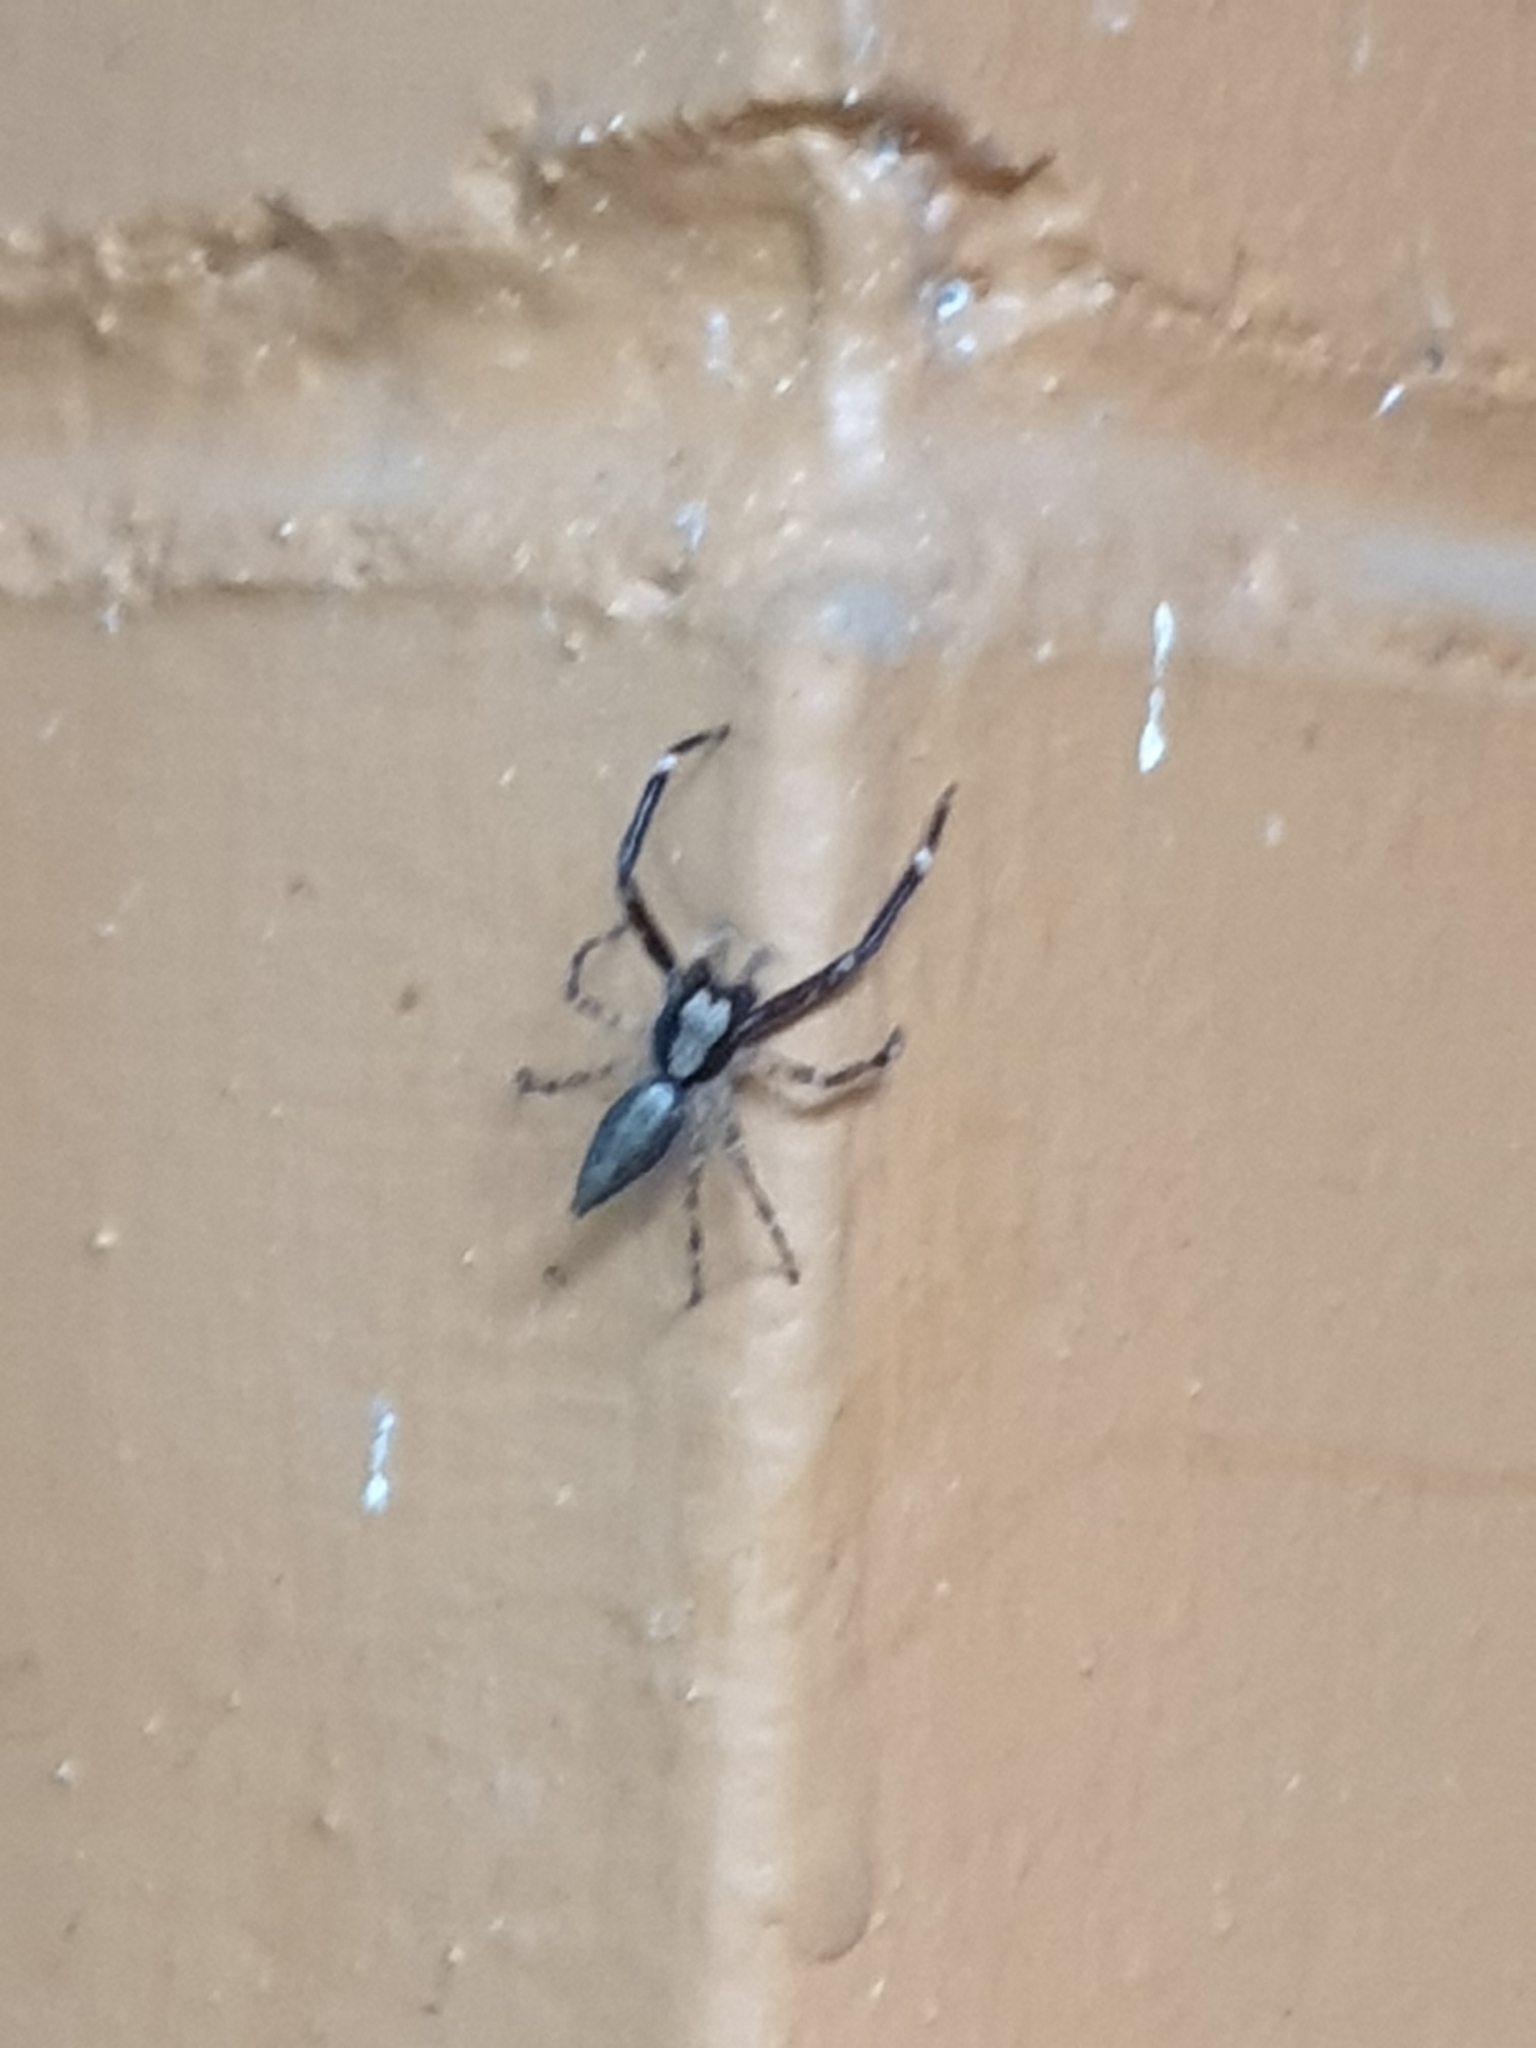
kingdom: Animalia
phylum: Arthropoda
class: Arachnida
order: Araneae
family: Salticidae
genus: Helpis
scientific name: Helpis minitabunda
